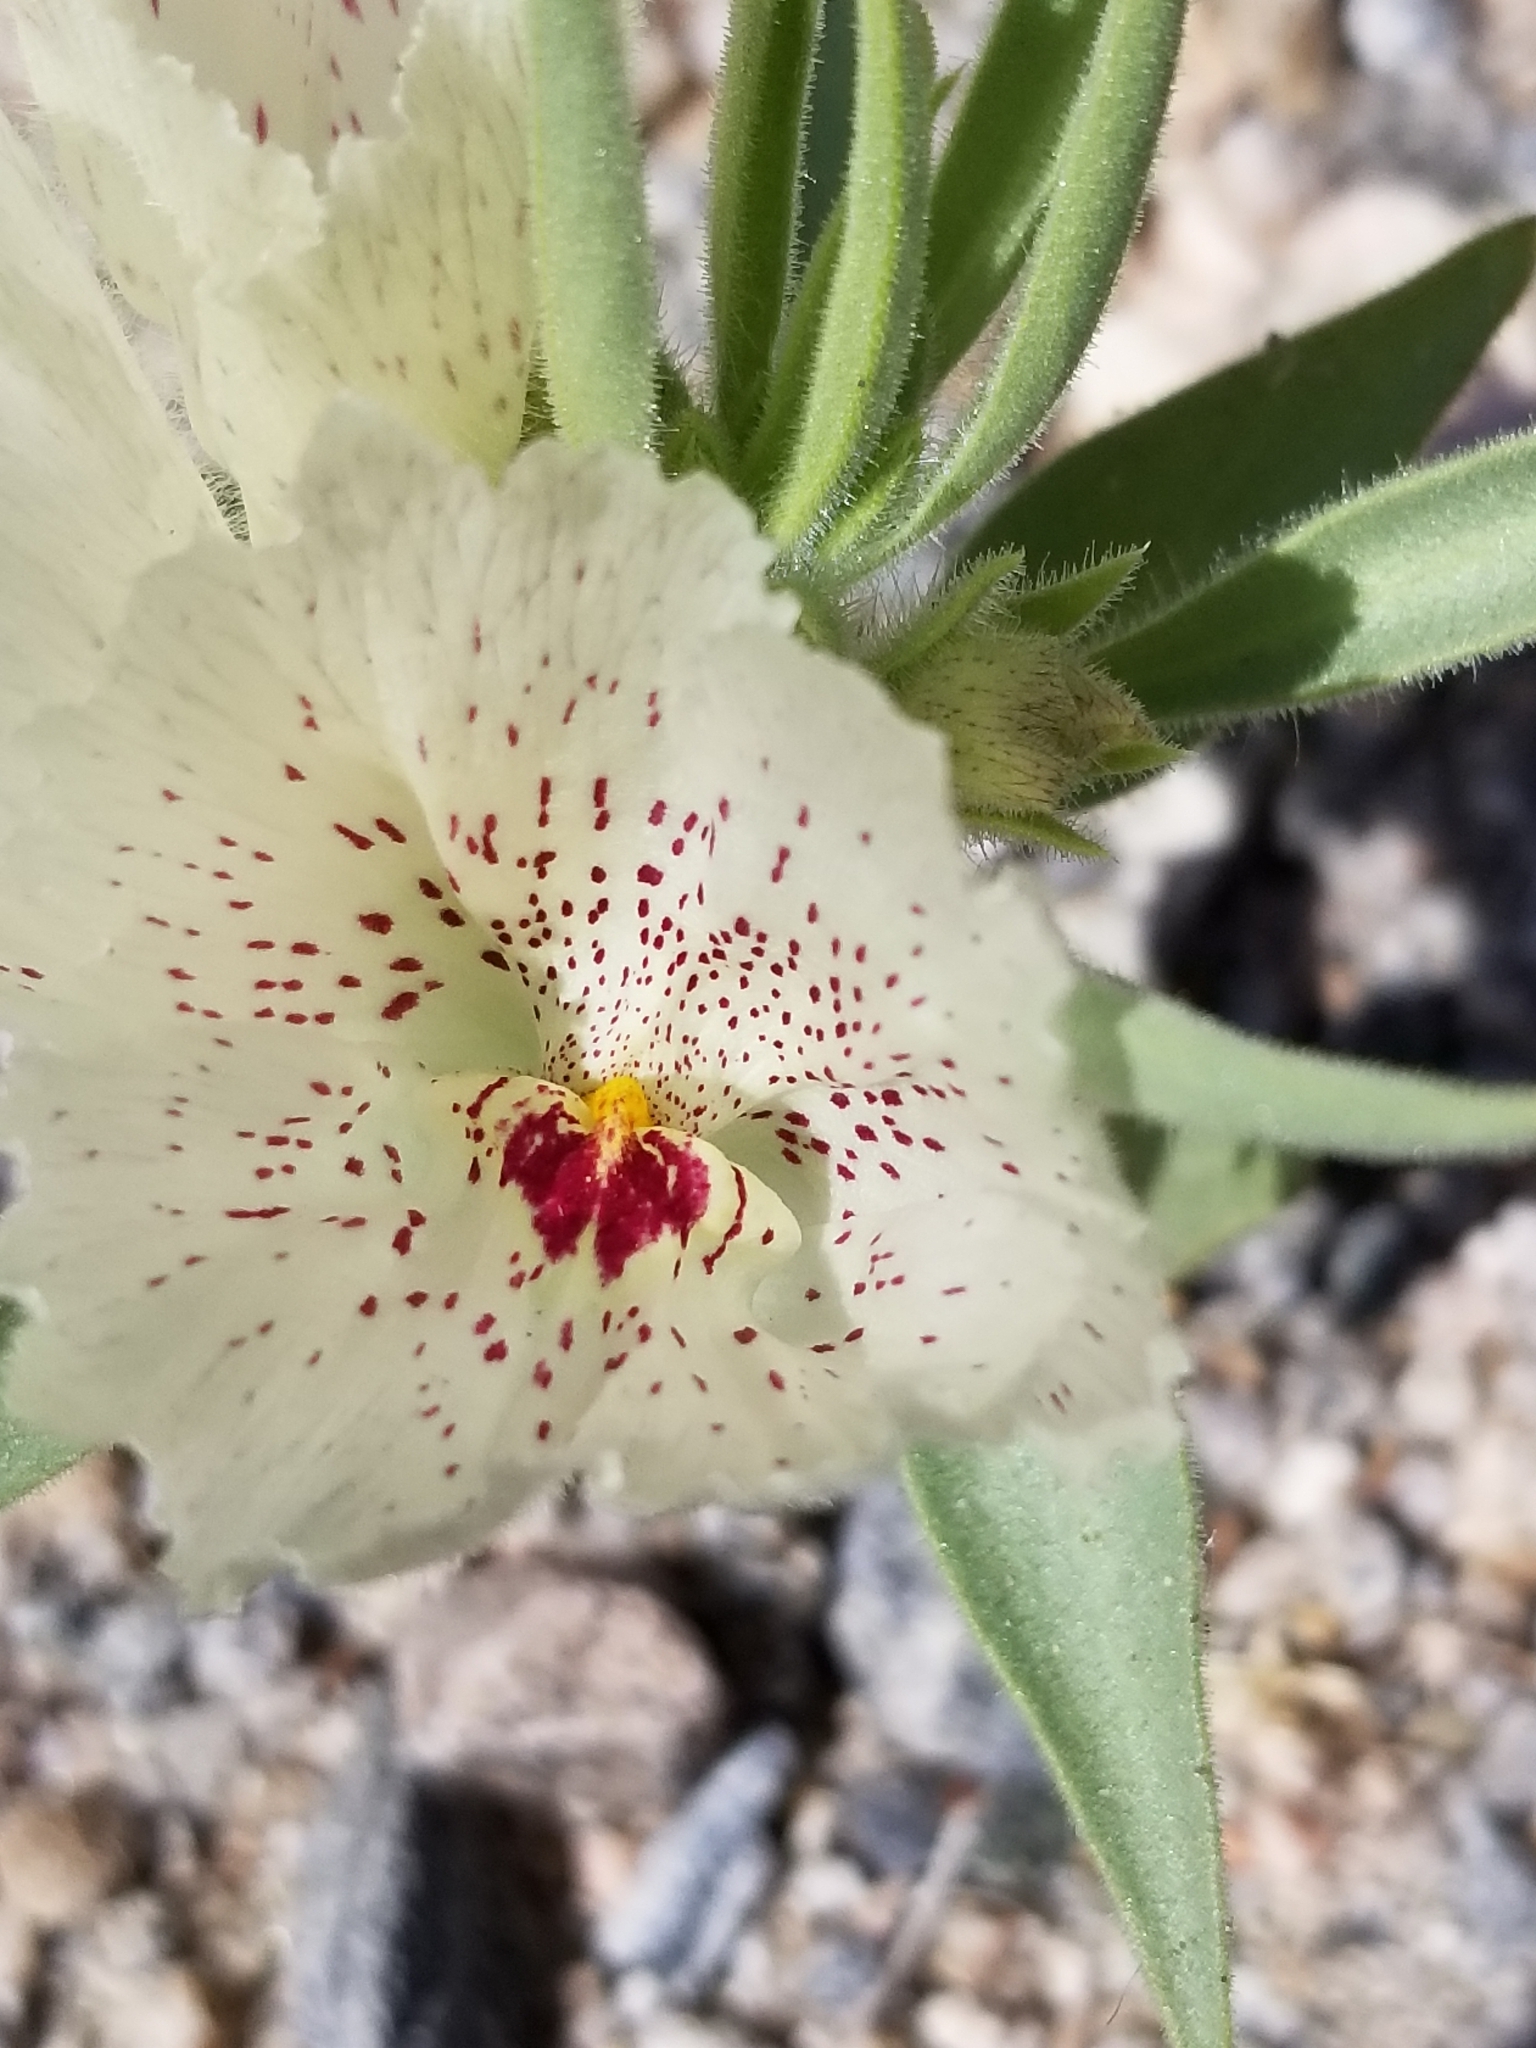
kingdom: Plantae
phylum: Tracheophyta
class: Magnoliopsida
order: Lamiales
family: Plantaginaceae
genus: Mohavea
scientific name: Mohavea confertiflora
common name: Ghost flower
